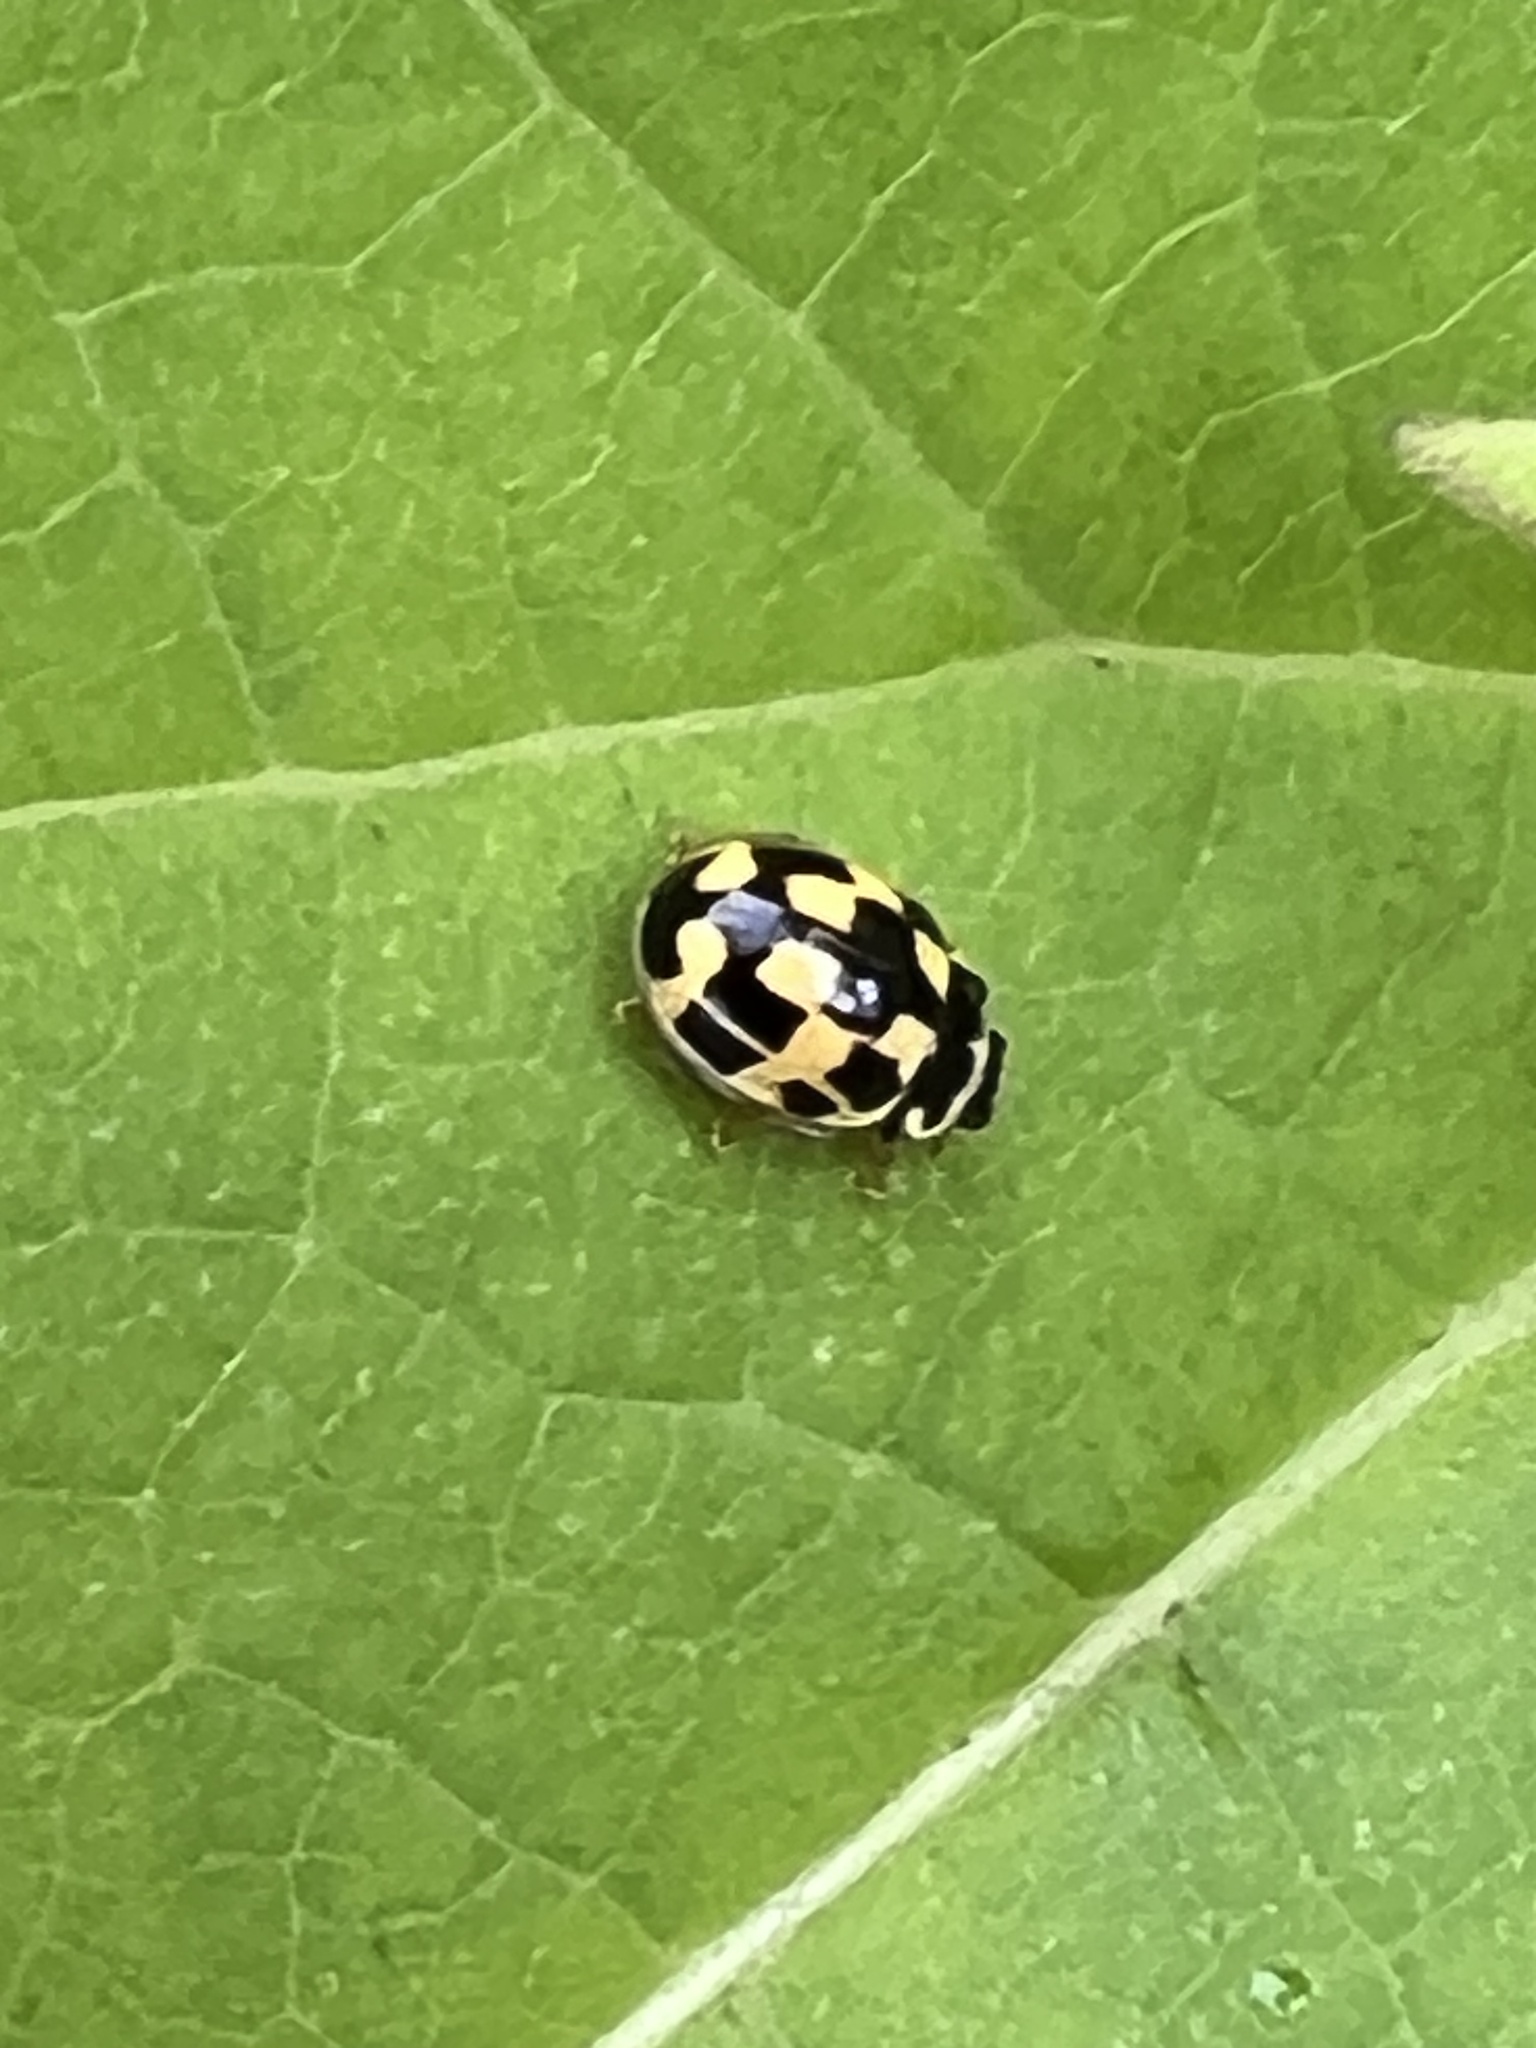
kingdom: Animalia
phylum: Arthropoda
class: Insecta
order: Coleoptera
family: Coccinellidae
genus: Propylaea
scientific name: Propylaea quatuordecimpunctata
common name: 14-spotted ladybird beetle
